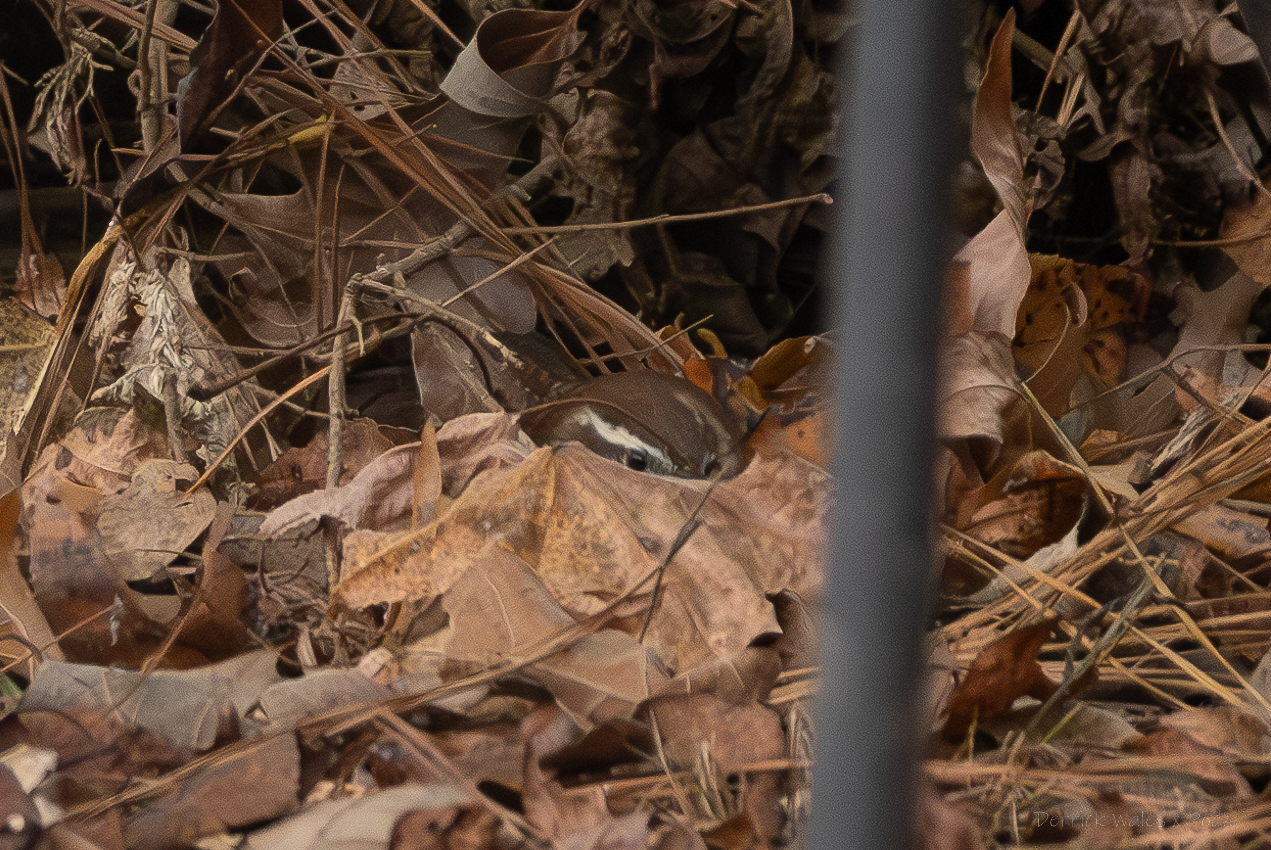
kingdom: Animalia
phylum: Chordata
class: Aves
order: Passeriformes
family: Troglodytidae
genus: Thryothorus
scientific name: Thryothorus ludovicianus
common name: Carolina wren
